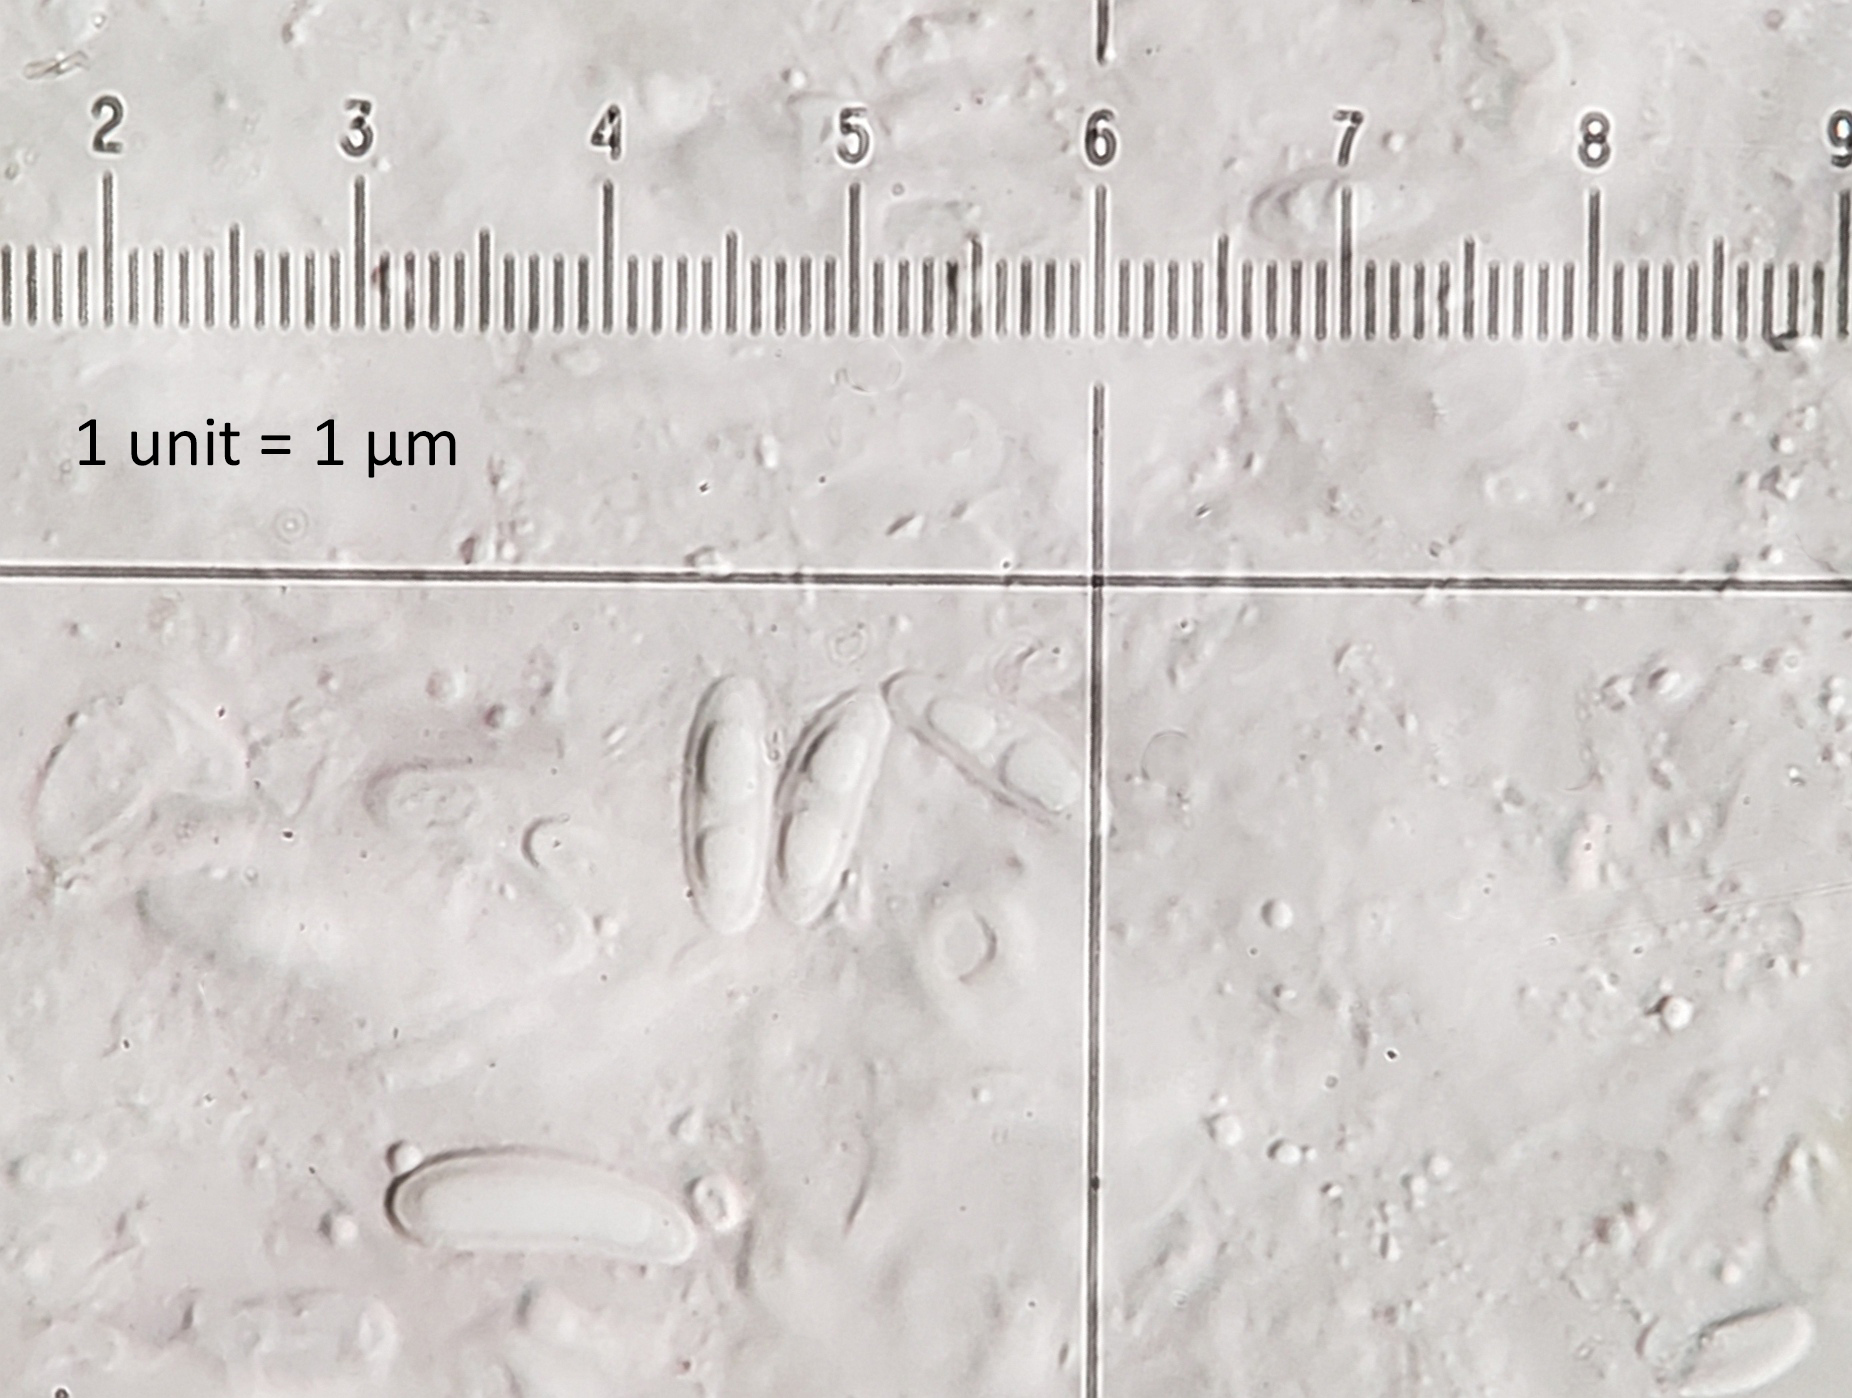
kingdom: Fungi
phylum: Ascomycota
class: Lecanoromycetes
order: Lecanorales
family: Lecanoraceae
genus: Lecanora
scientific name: Lecanora symmicta
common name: Fused rim lichen
